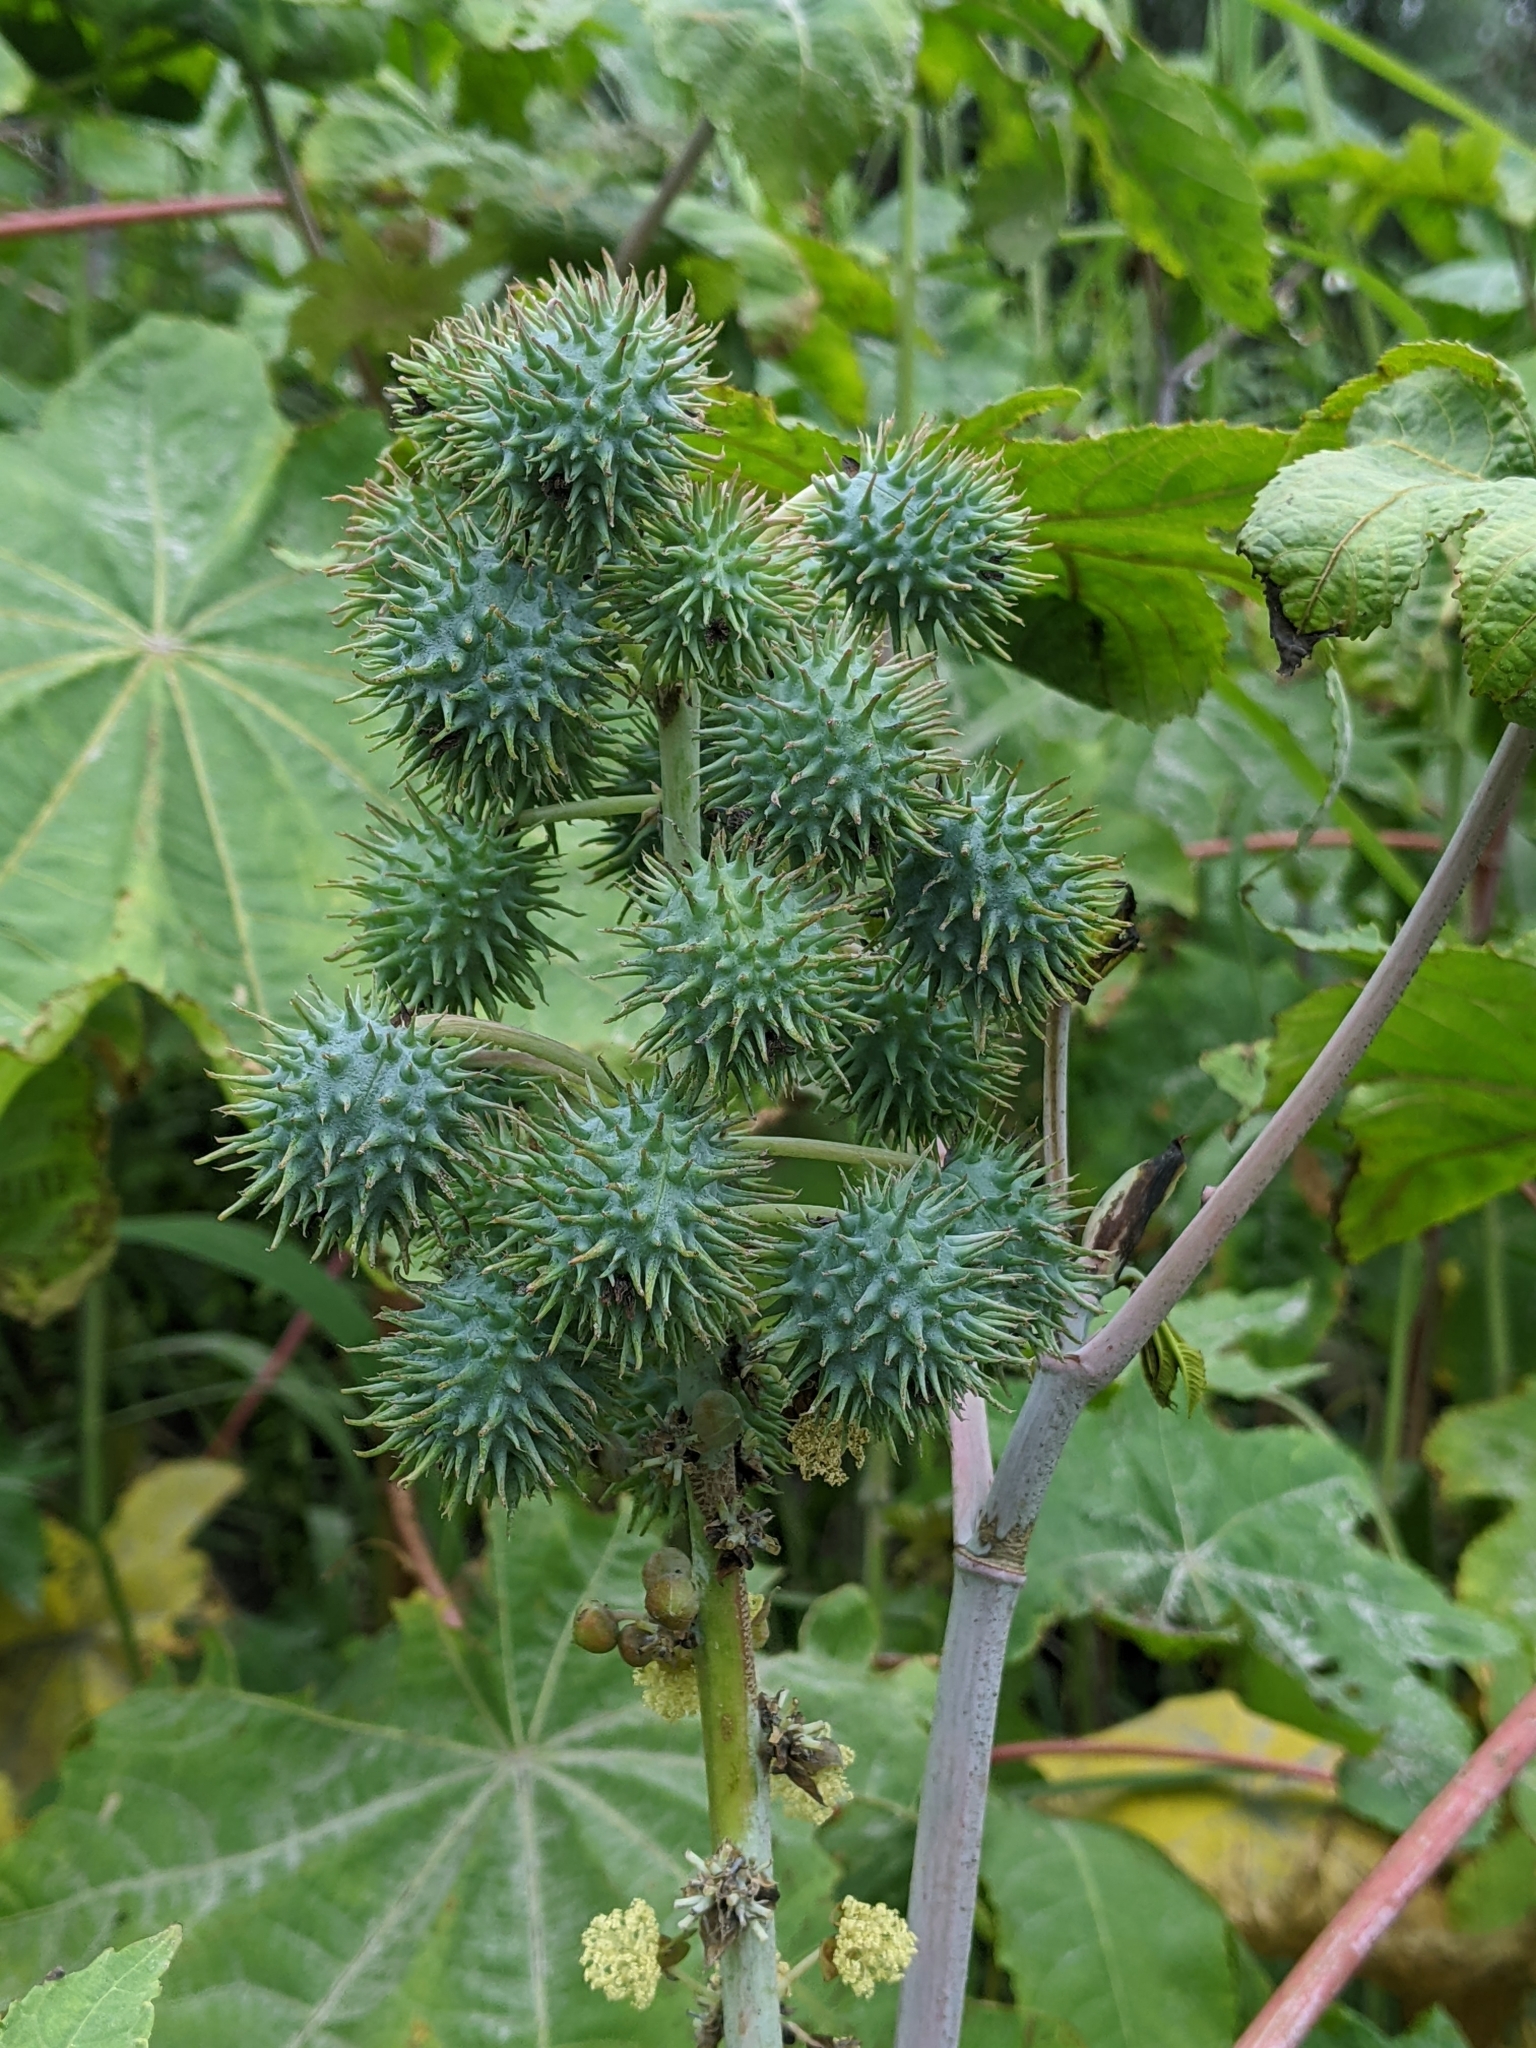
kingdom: Plantae
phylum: Tracheophyta
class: Magnoliopsida
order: Malpighiales
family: Euphorbiaceae
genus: Ricinus
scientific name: Ricinus communis
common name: Castor-oil-plant
